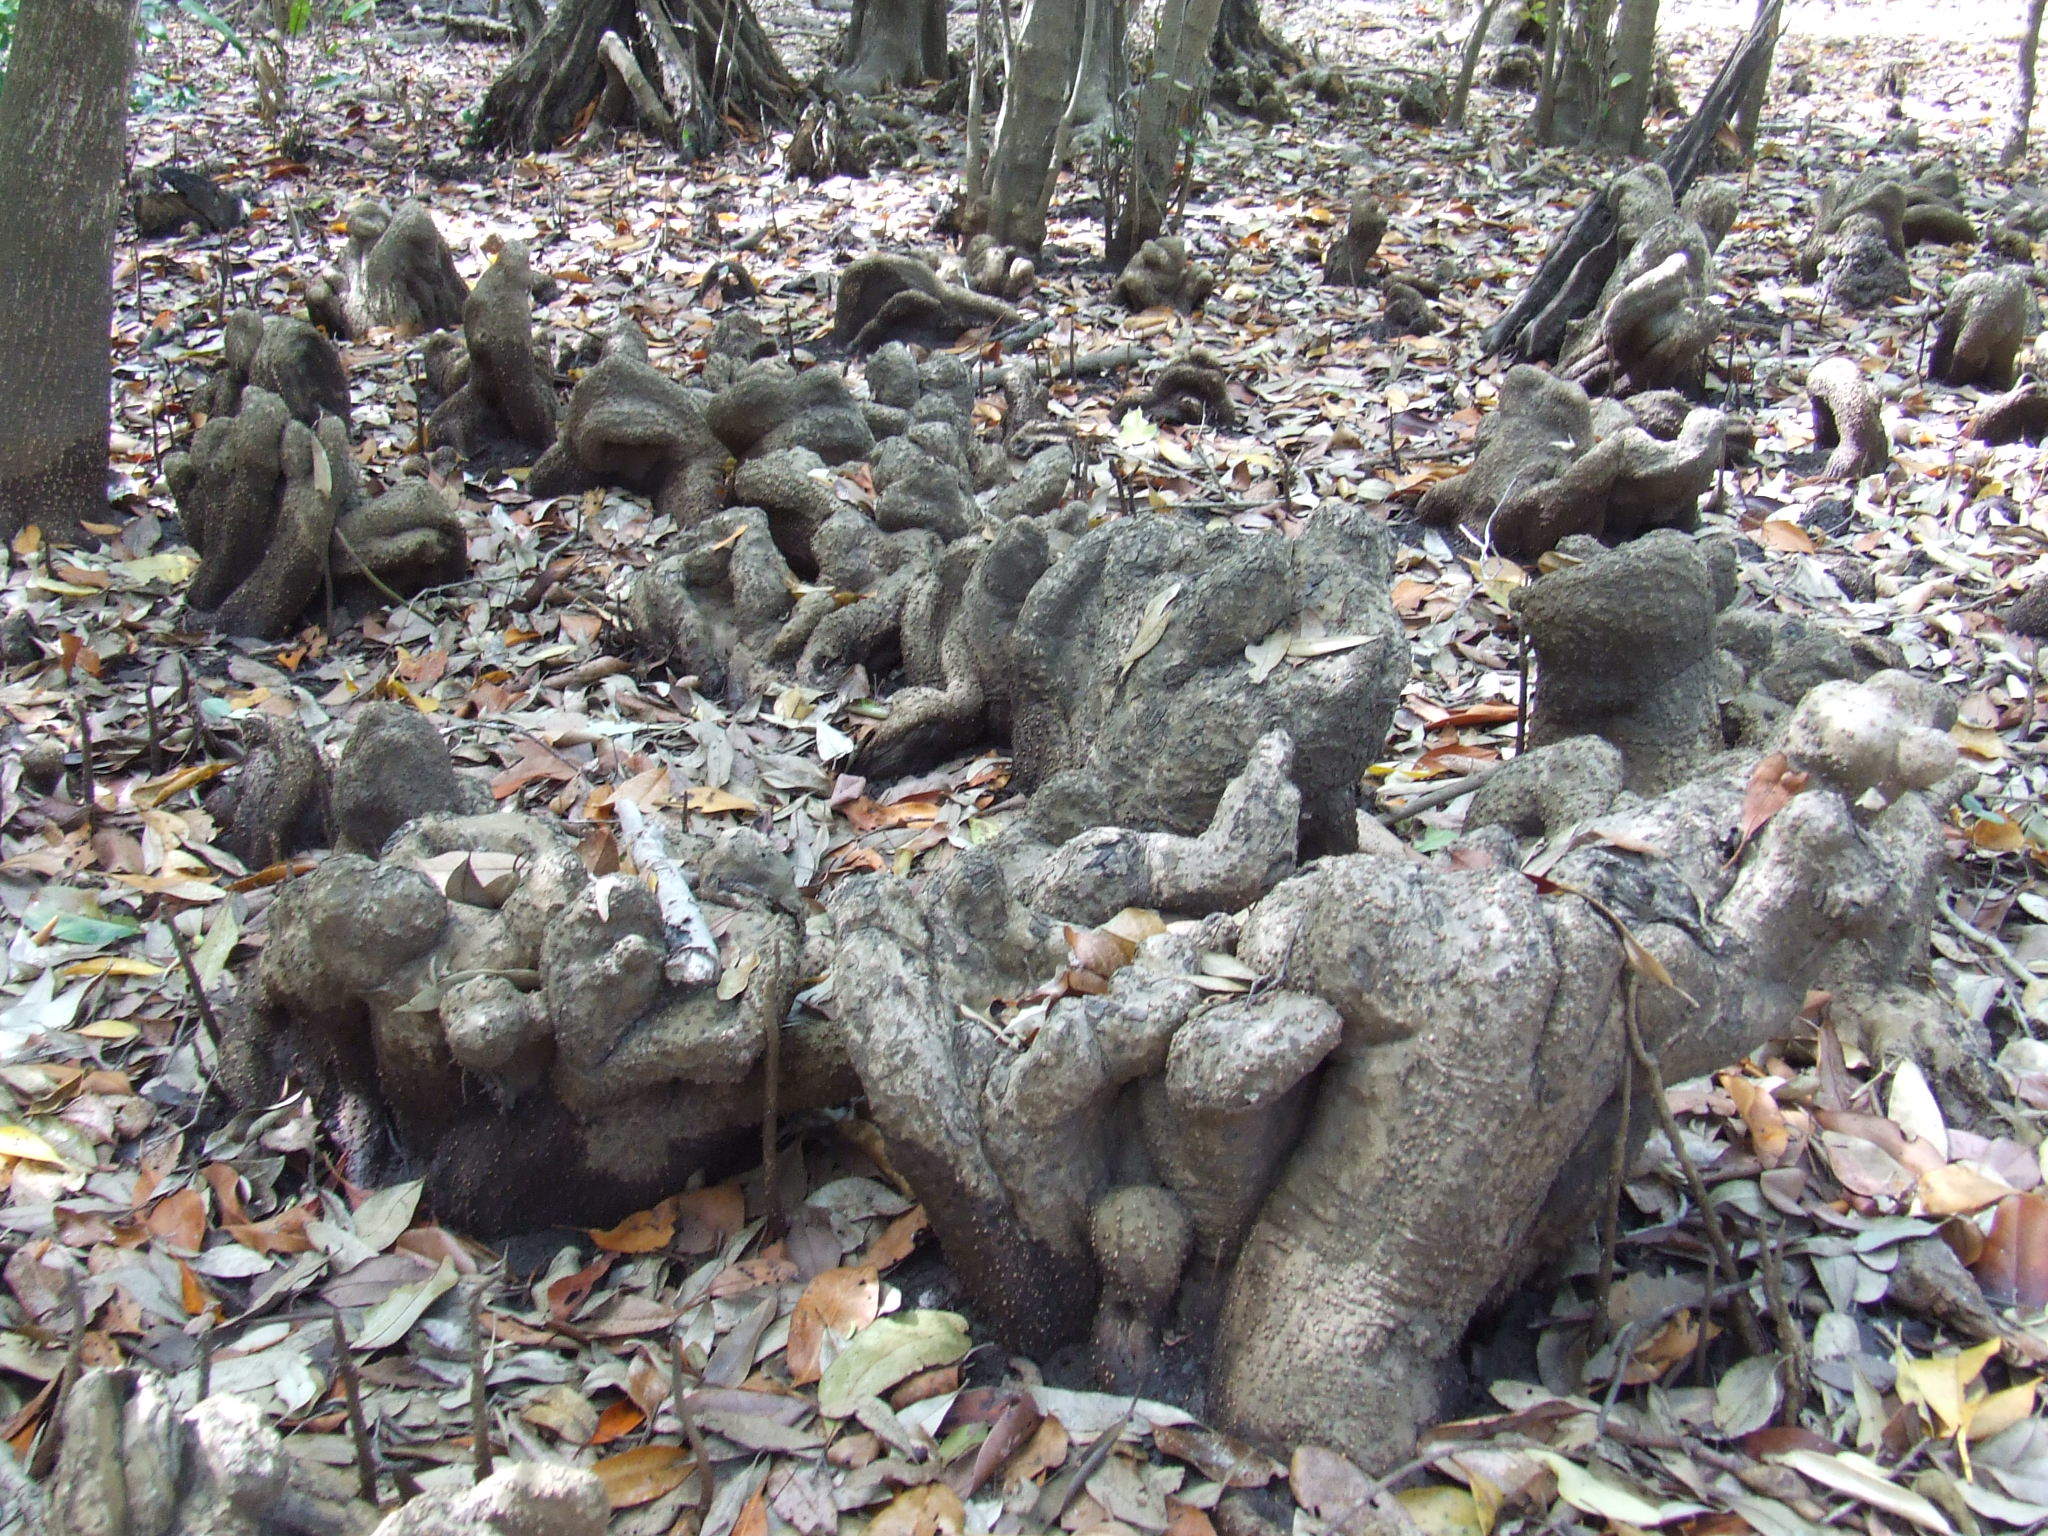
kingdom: Plantae
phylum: Tracheophyta
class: Magnoliopsida
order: Malvales
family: Malvaceae
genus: Camptostemon
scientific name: Camptostemon schultzii
